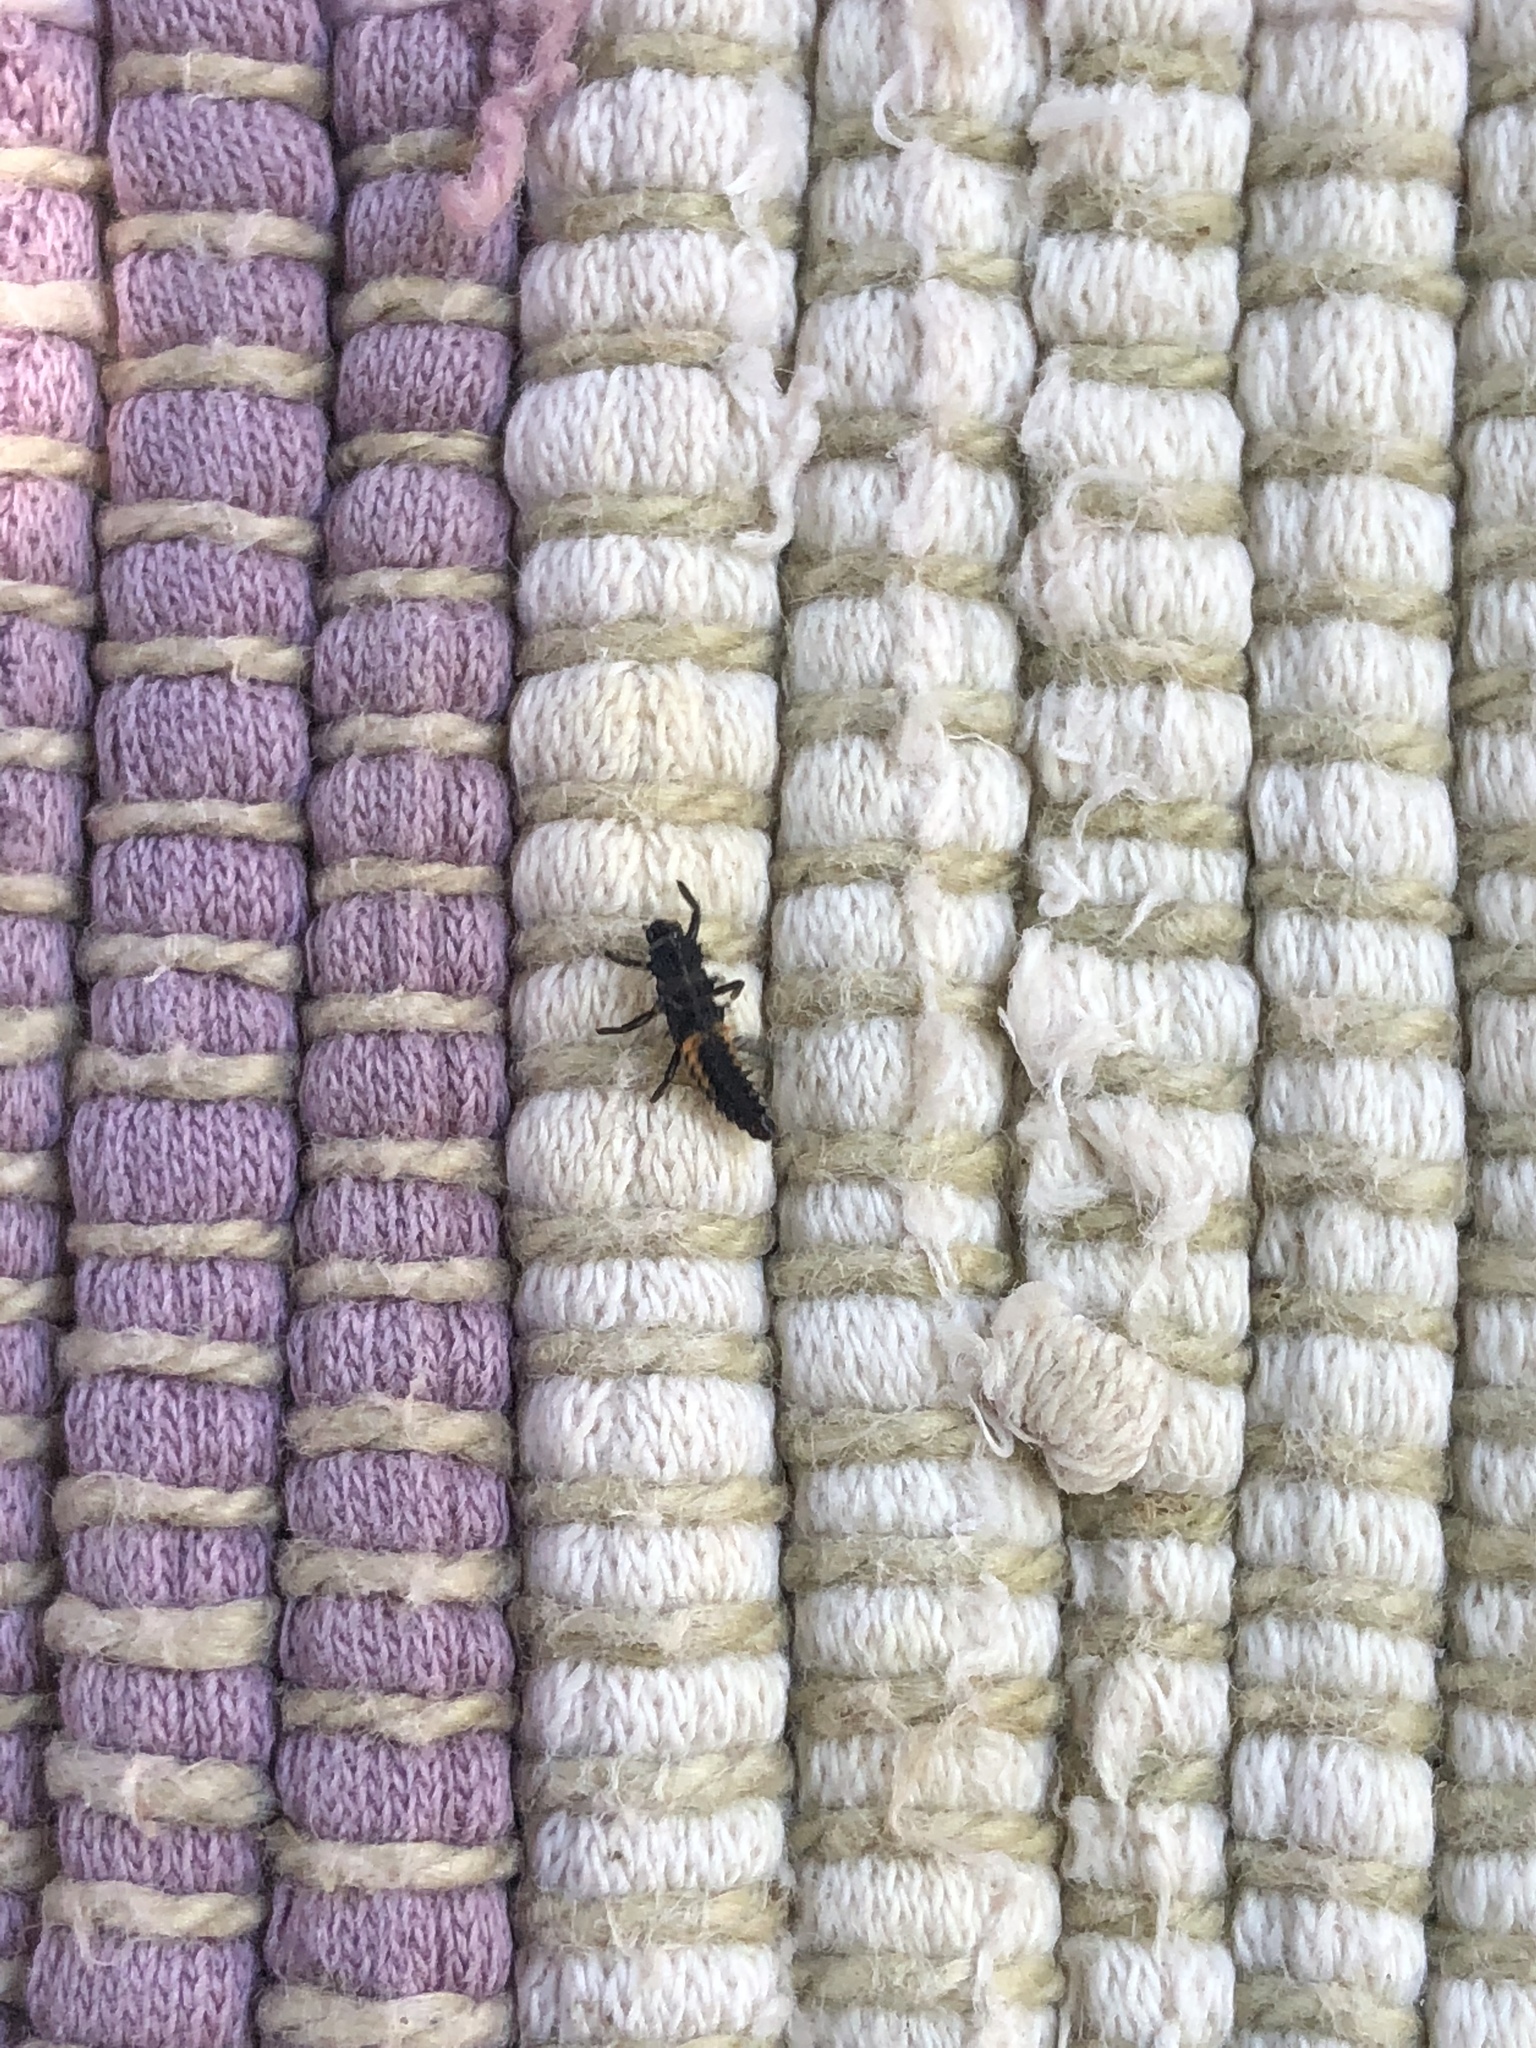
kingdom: Animalia
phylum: Arthropoda
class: Insecta
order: Coleoptera
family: Coccinellidae
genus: Harmonia
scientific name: Harmonia axyridis
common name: Harlequin ladybird
